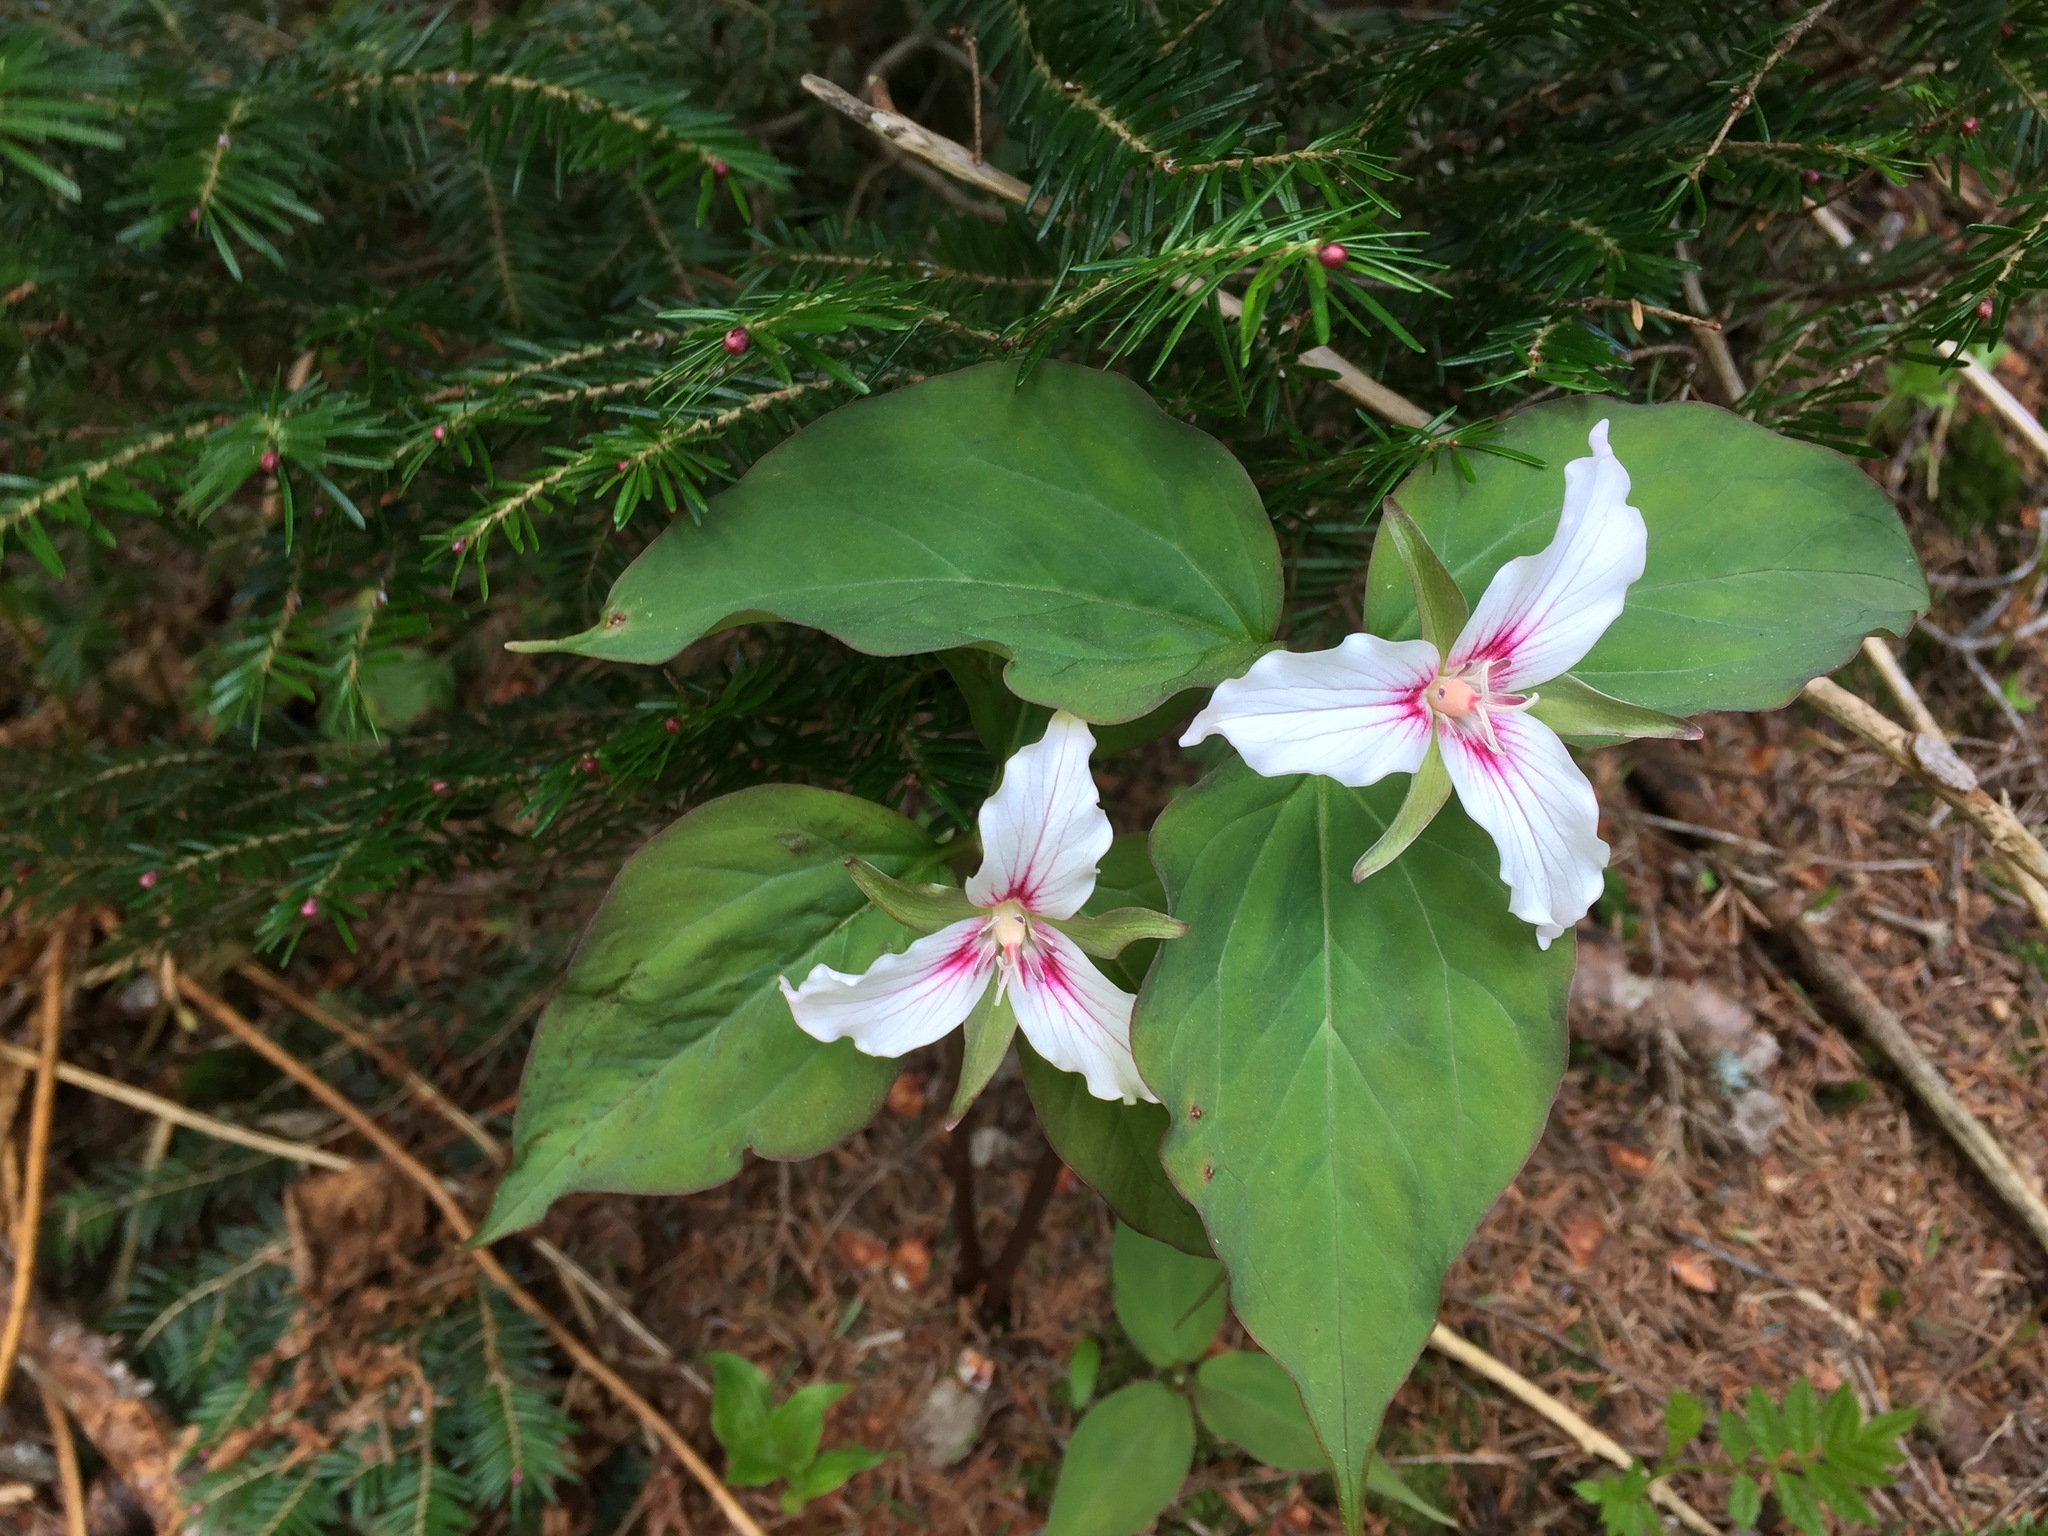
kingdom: Plantae
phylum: Tracheophyta
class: Liliopsida
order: Liliales
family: Melanthiaceae
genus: Trillium
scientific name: Trillium undulatum
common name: Paint trillium
